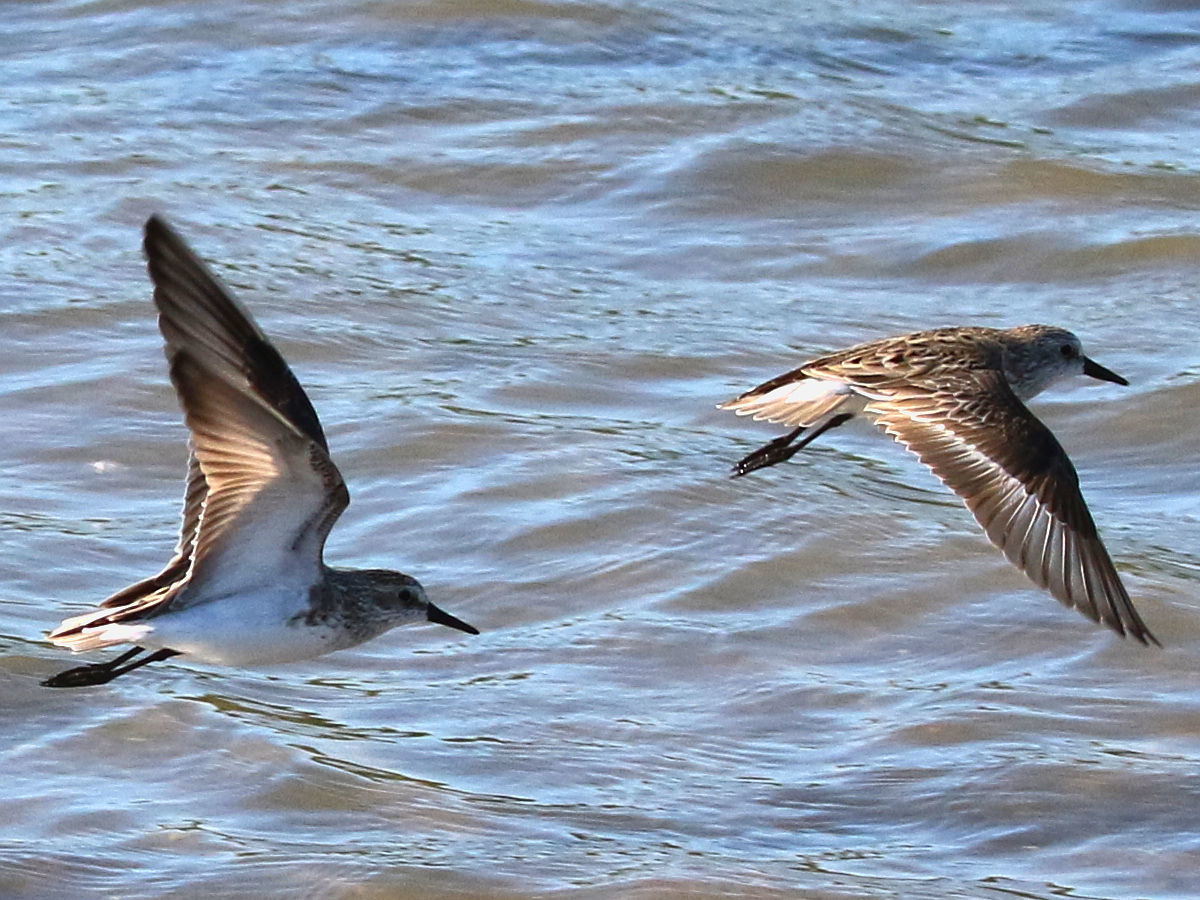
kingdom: Animalia
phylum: Chordata
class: Aves
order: Charadriiformes
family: Scolopacidae
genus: Calidris
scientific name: Calidris pusilla
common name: Semipalmated sandpiper
